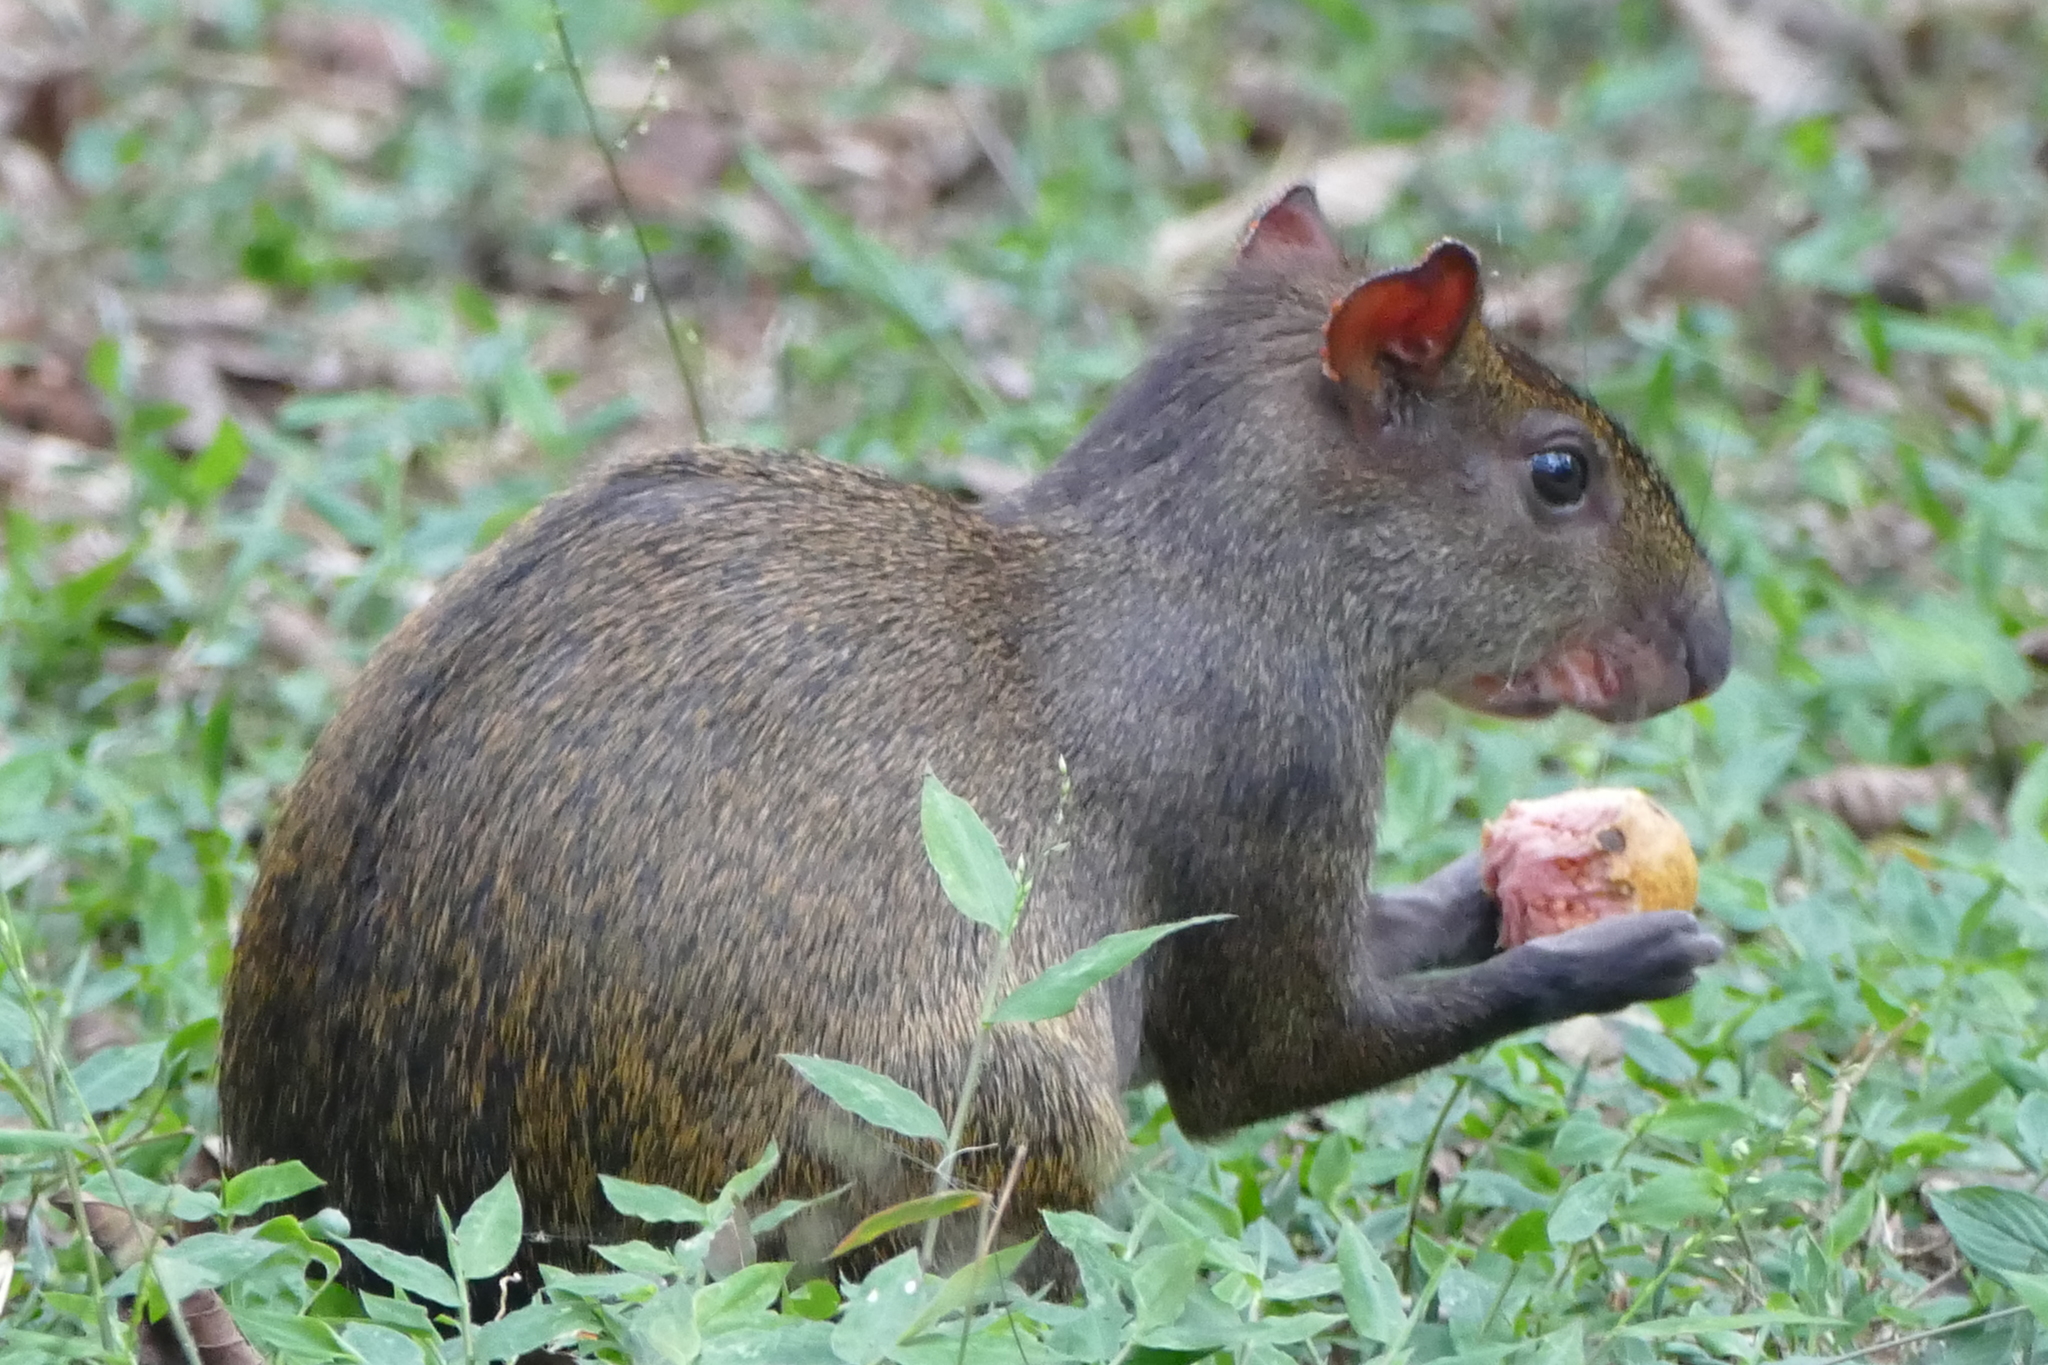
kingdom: Animalia
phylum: Chordata
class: Mammalia
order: Rodentia
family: Dasyproctidae
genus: Dasyprocta
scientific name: Dasyprocta punctata
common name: Central american agouti
